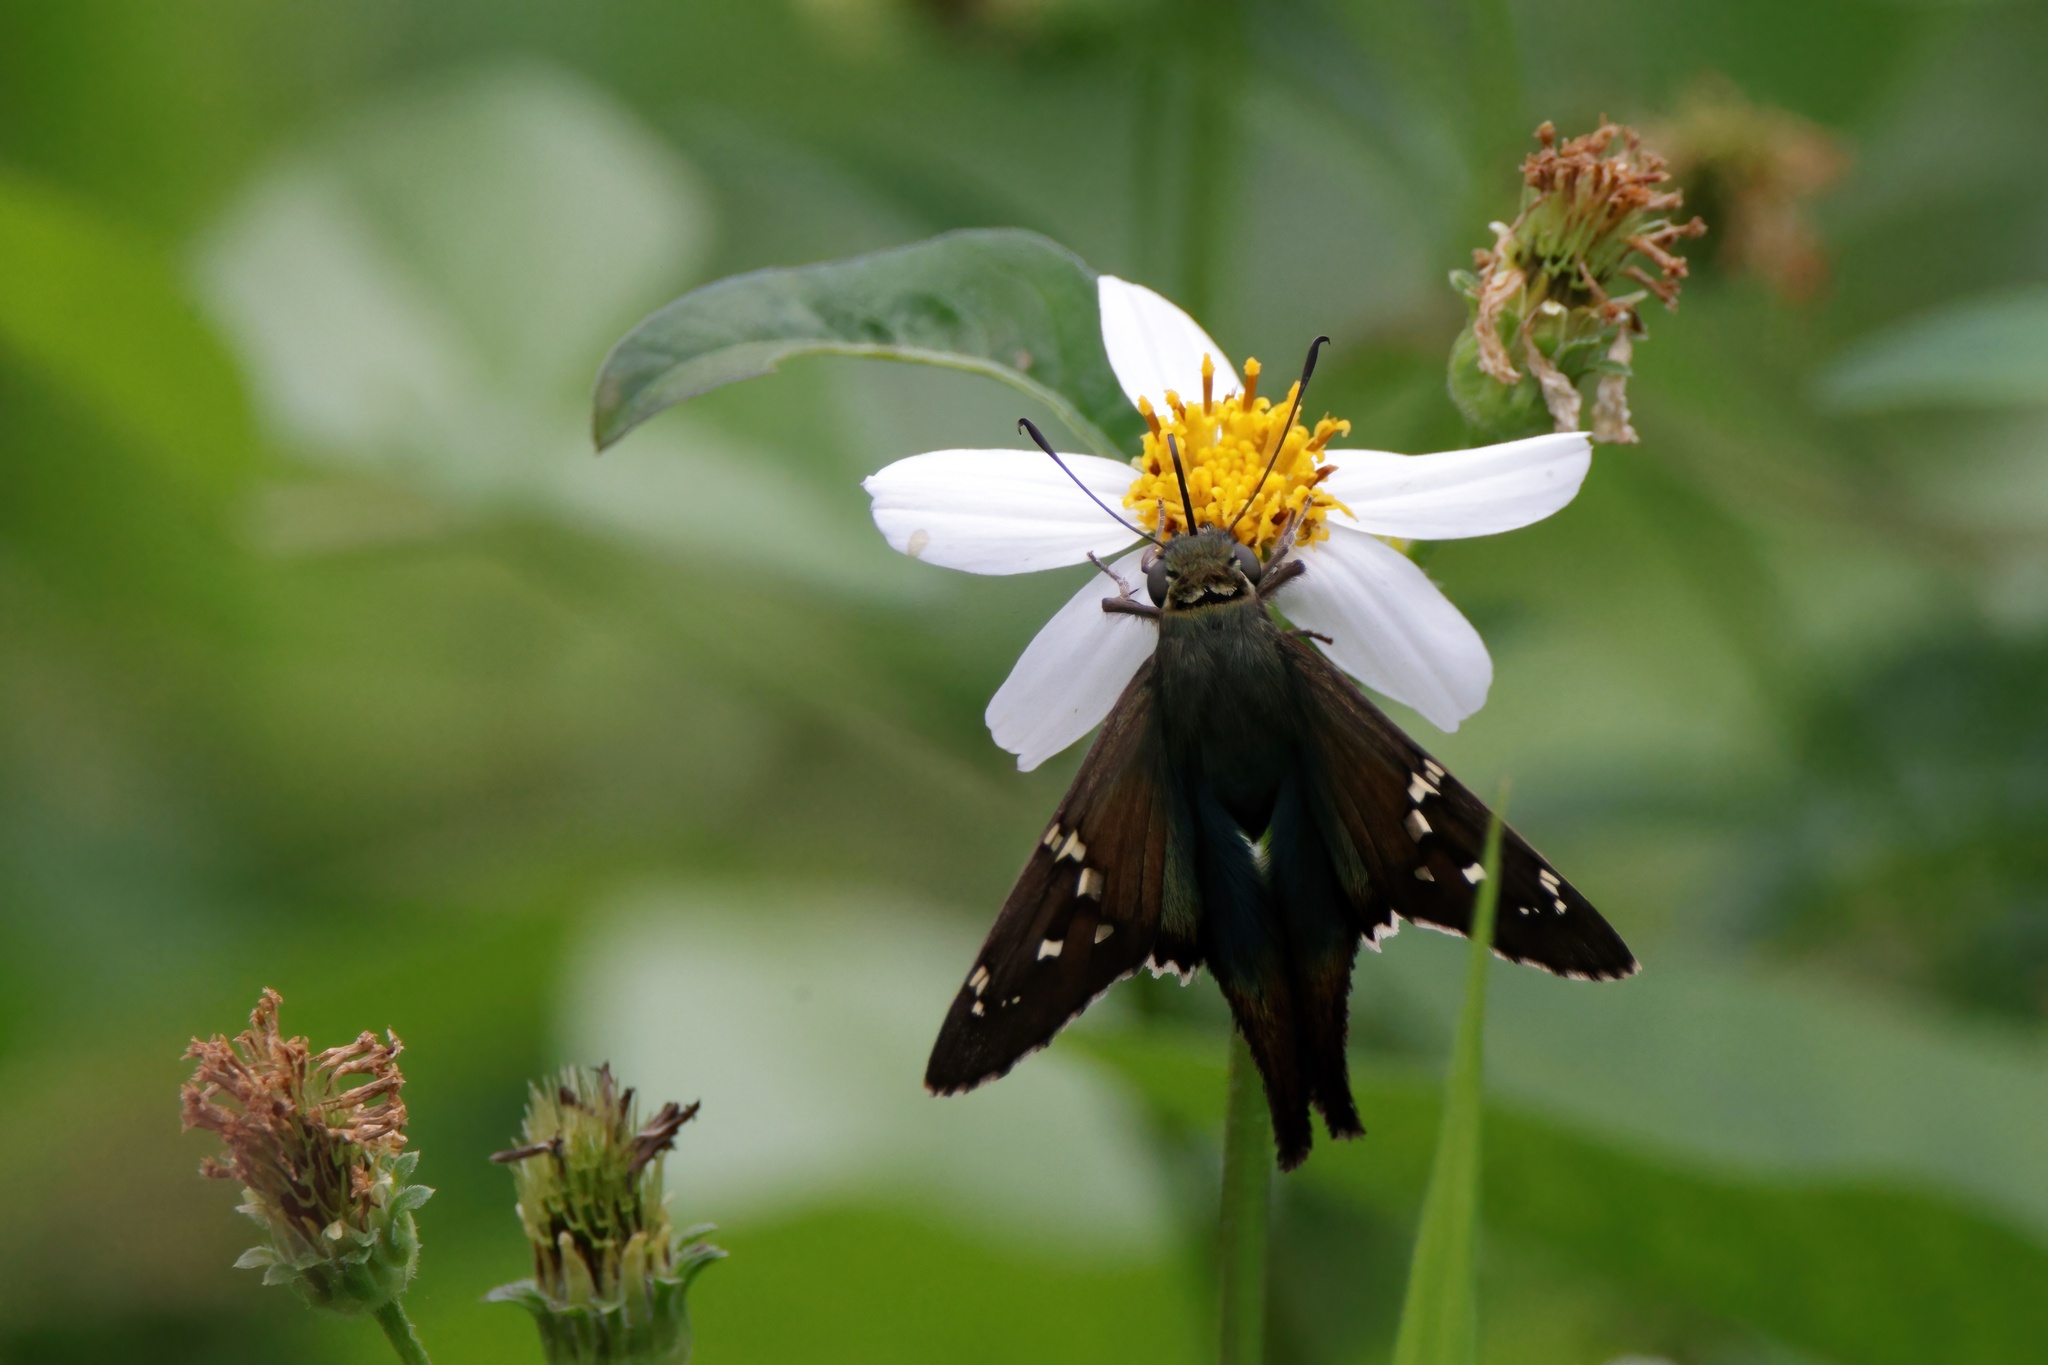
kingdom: Animalia
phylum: Arthropoda
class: Insecta
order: Lepidoptera
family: Hesperiidae
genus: Urbanus
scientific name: Urbanus proteus
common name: Long-tailed skipper
